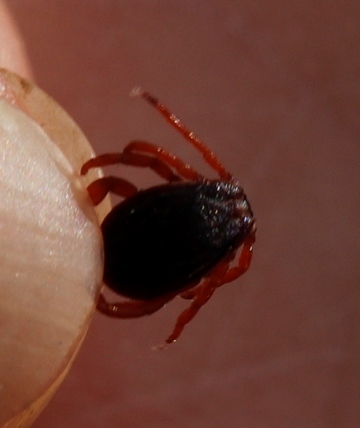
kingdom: Animalia
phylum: Arthropoda
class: Arachnida
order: Ixodida
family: Ixodidae
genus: Rhipicephalus
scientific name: Rhipicephalus evertsi
